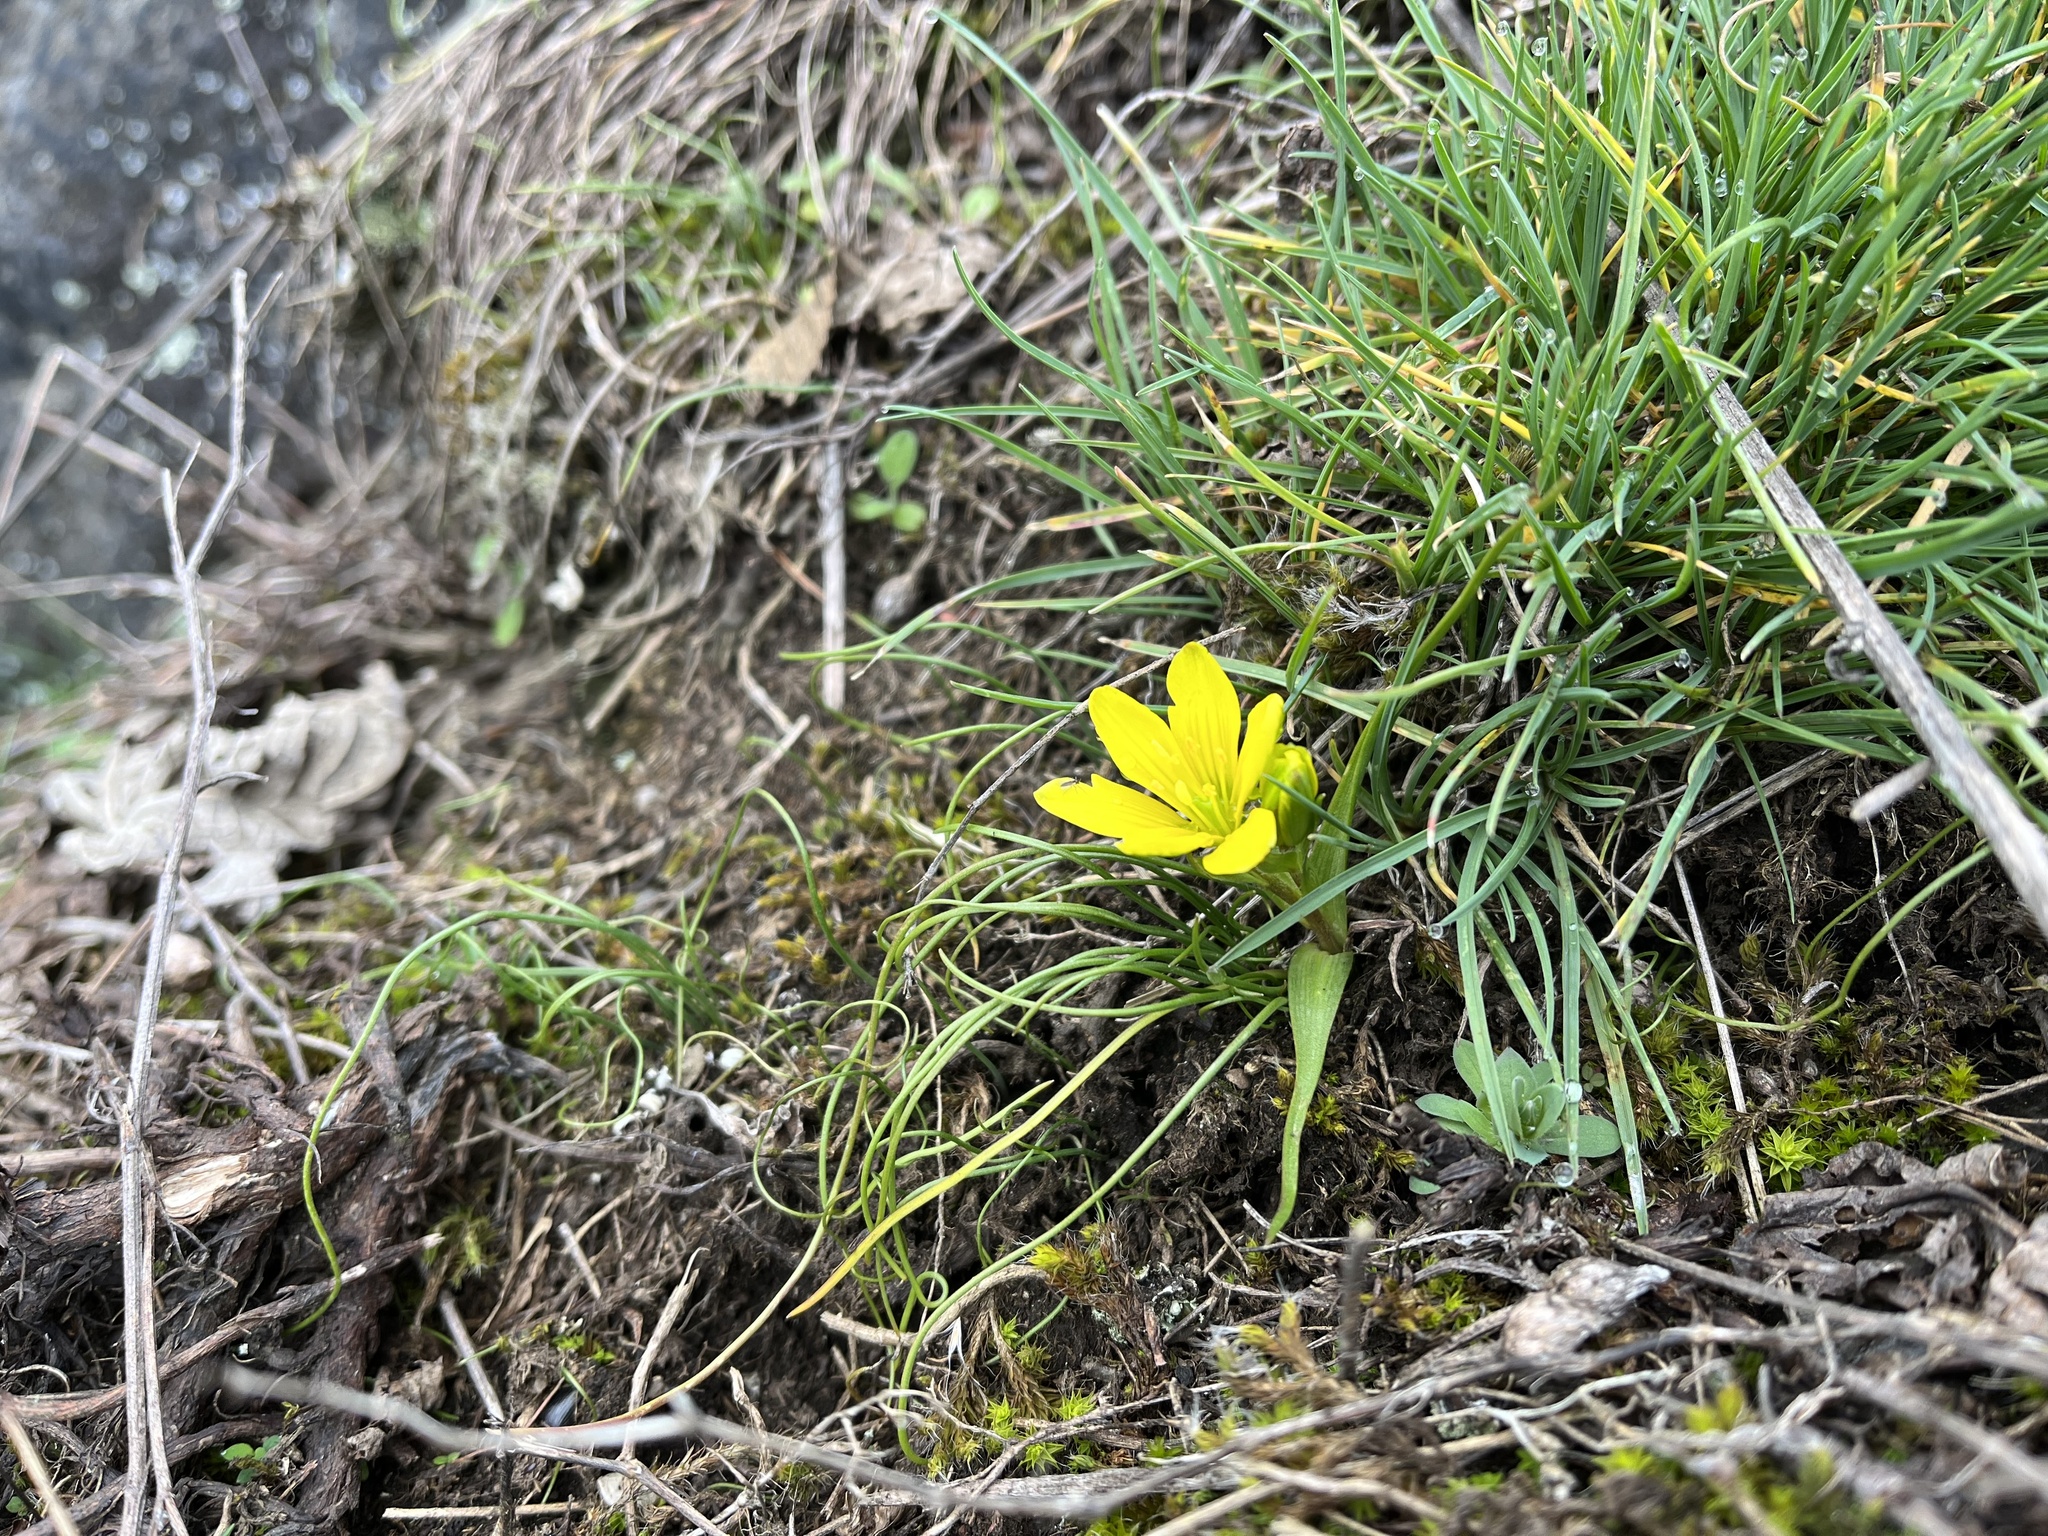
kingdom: Plantae
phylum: Tracheophyta
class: Liliopsida
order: Liliales
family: Liliaceae
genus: Gagea
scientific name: Gagea bohemica
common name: Early star-of-bethlehem
